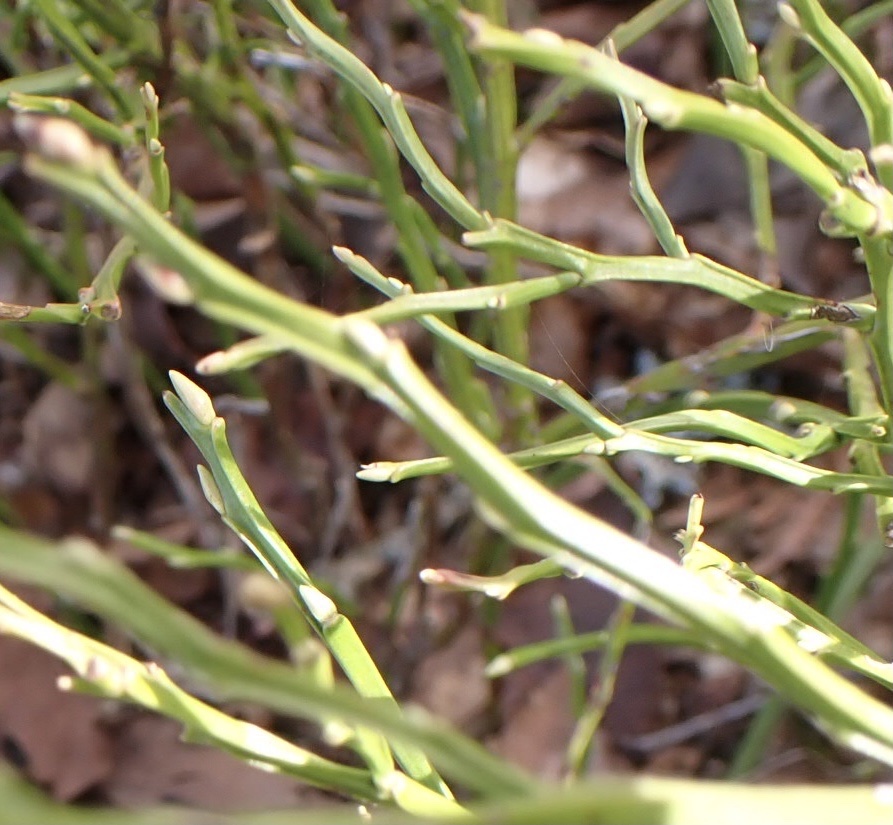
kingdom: Plantae
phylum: Tracheophyta
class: Magnoliopsida
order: Ericales
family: Ericaceae
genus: Vaccinium
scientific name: Vaccinium myrtillus
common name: Bilberry
